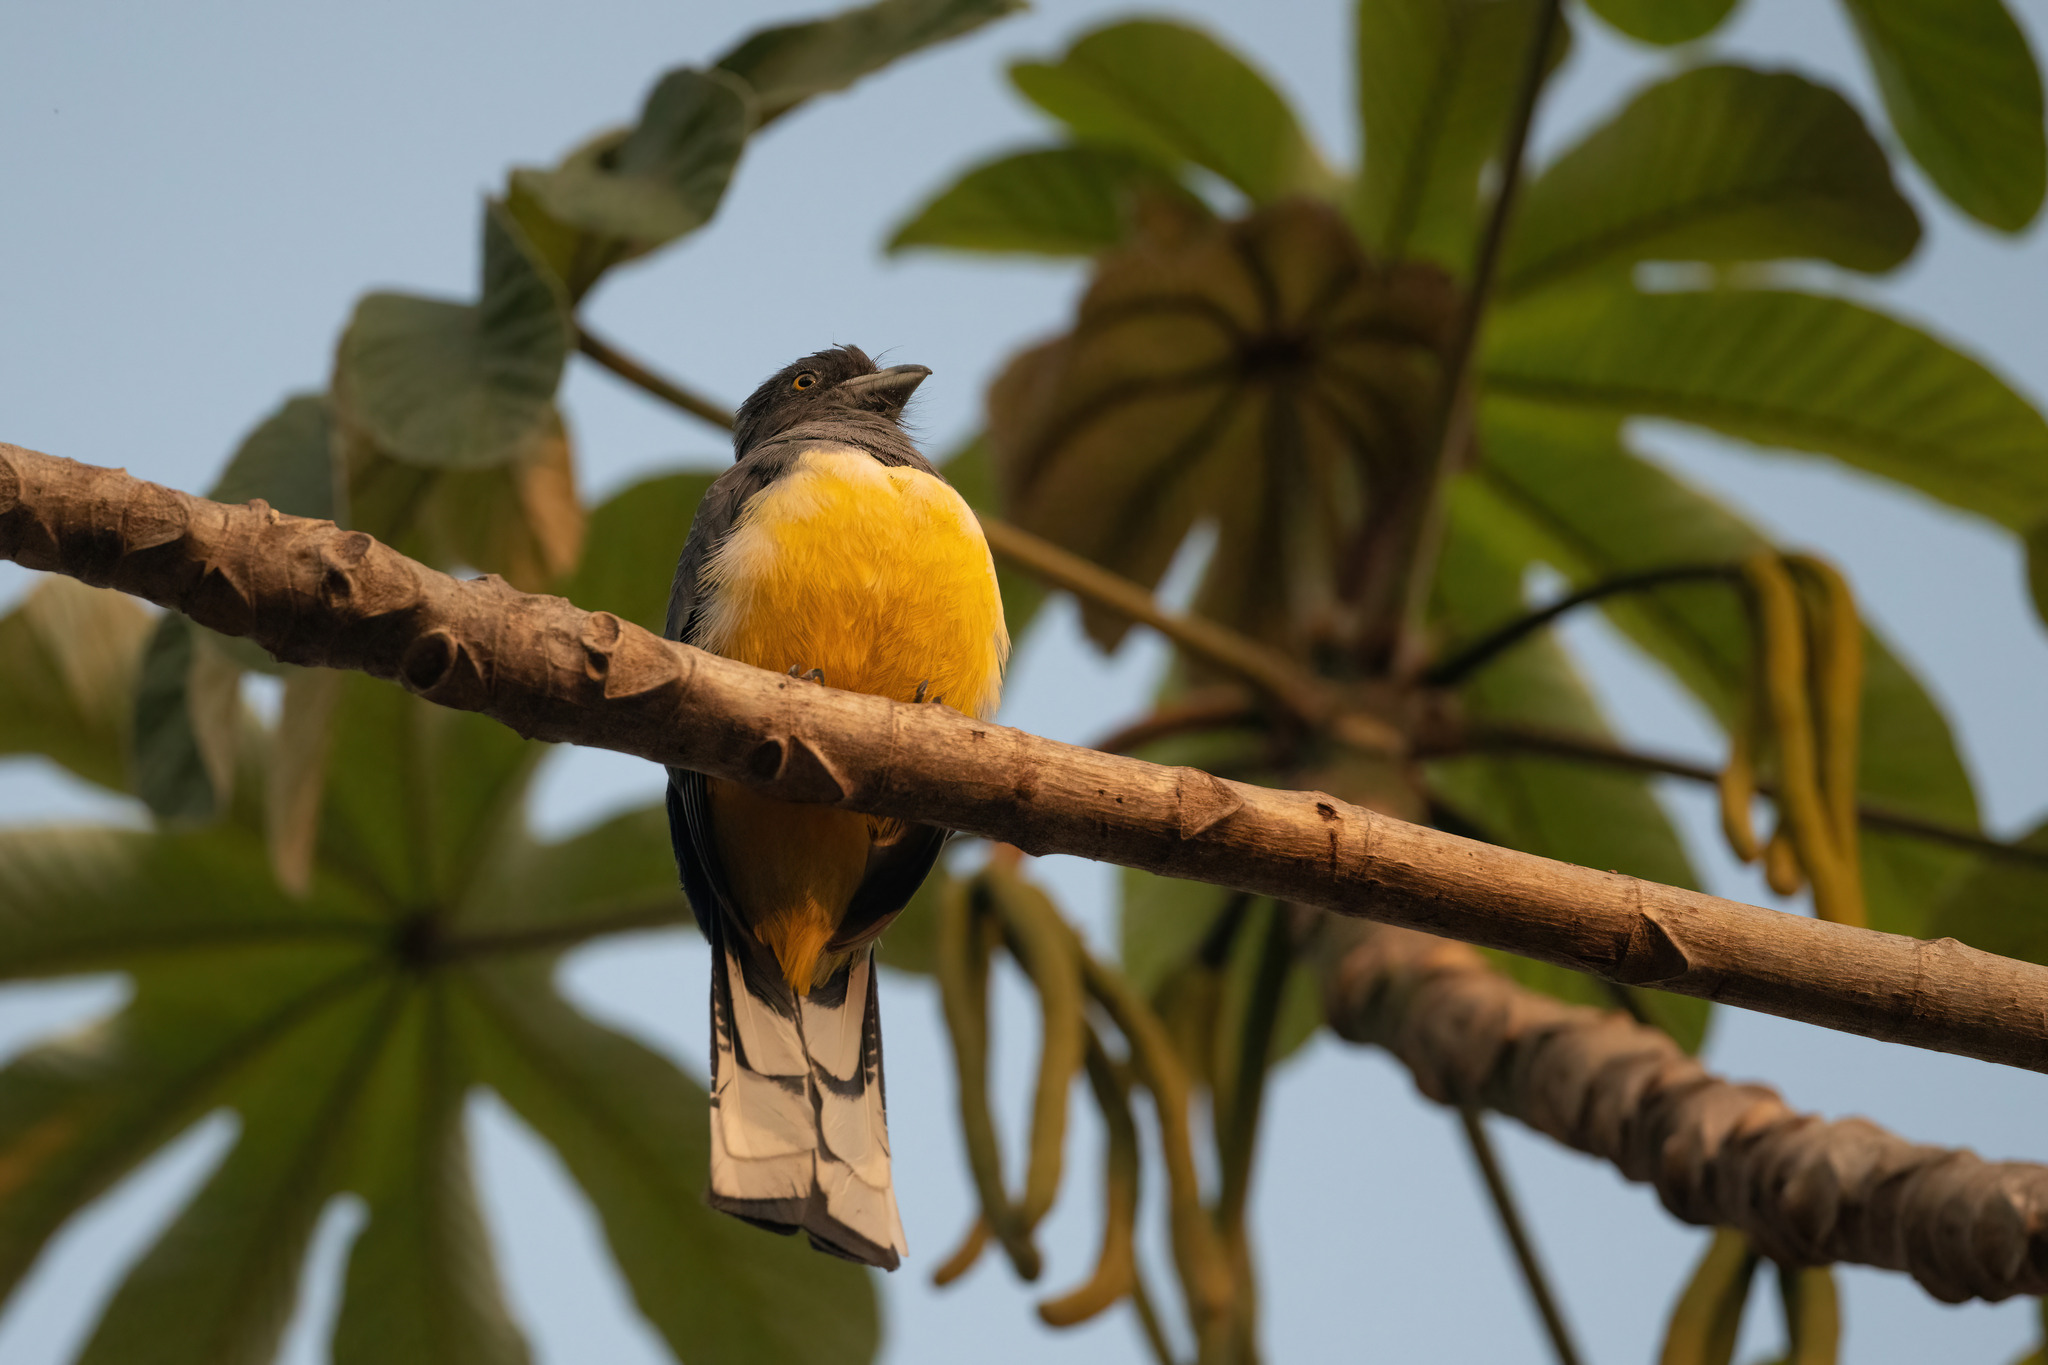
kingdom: Animalia
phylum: Chordata
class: Aves
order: Trogoniformes
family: Trogonidae
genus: Trogon
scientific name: Trogon citreolus
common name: Citreoline trogon
